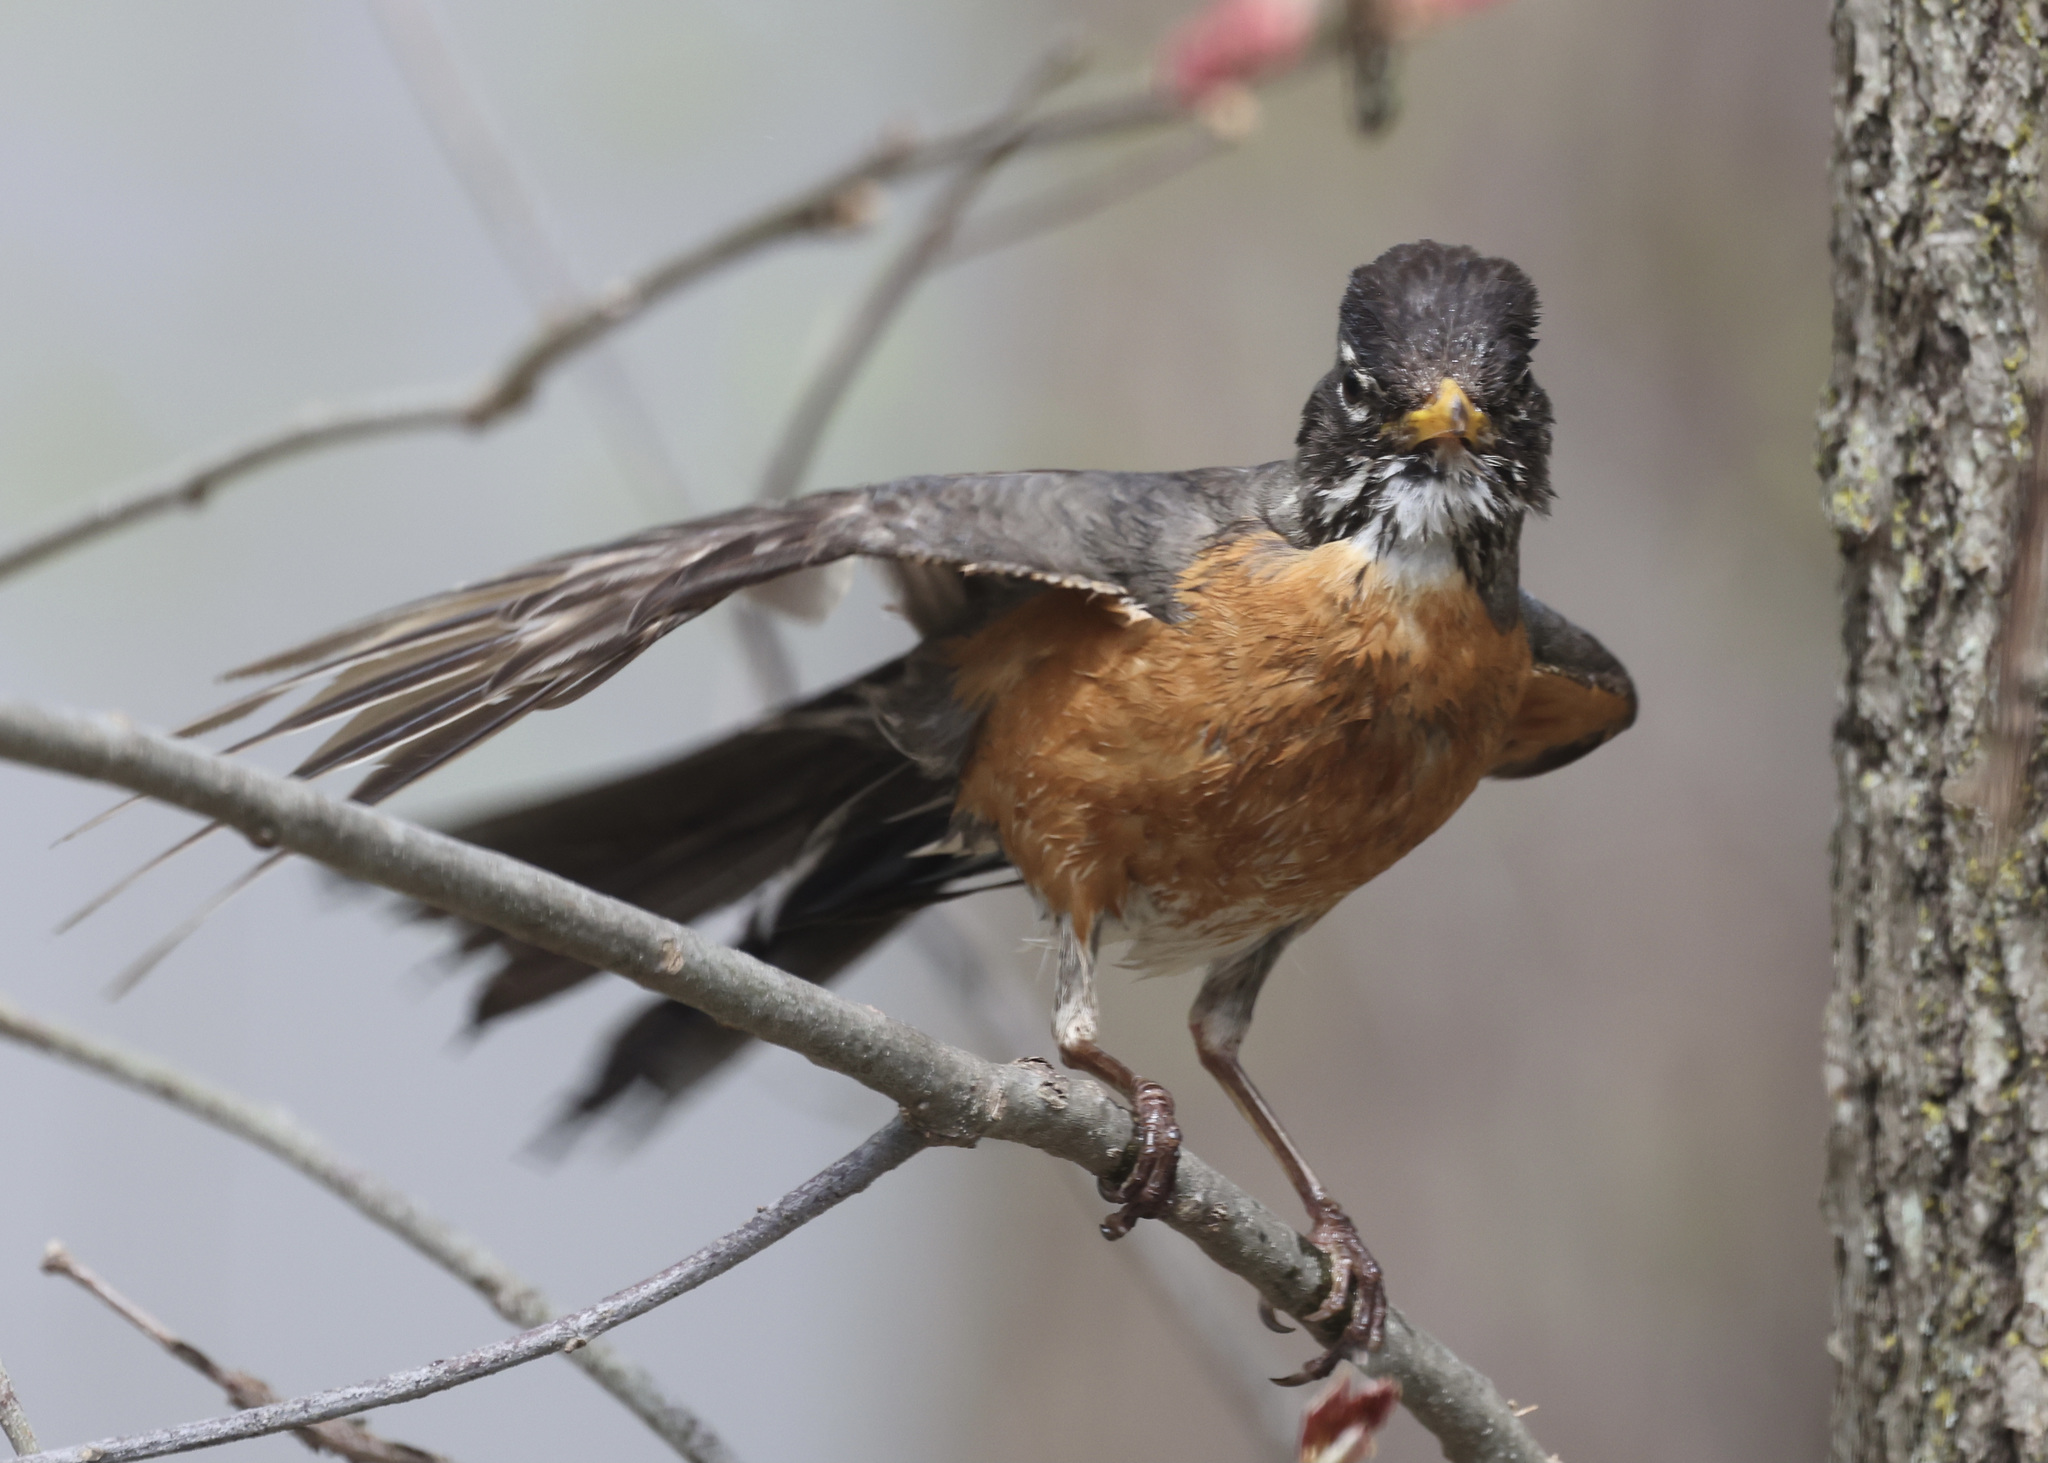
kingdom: Animalia
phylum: Chordata
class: Aves
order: Passeriformes
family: Turdidae
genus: Turdus
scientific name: Turdus migratorius
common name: American robin
